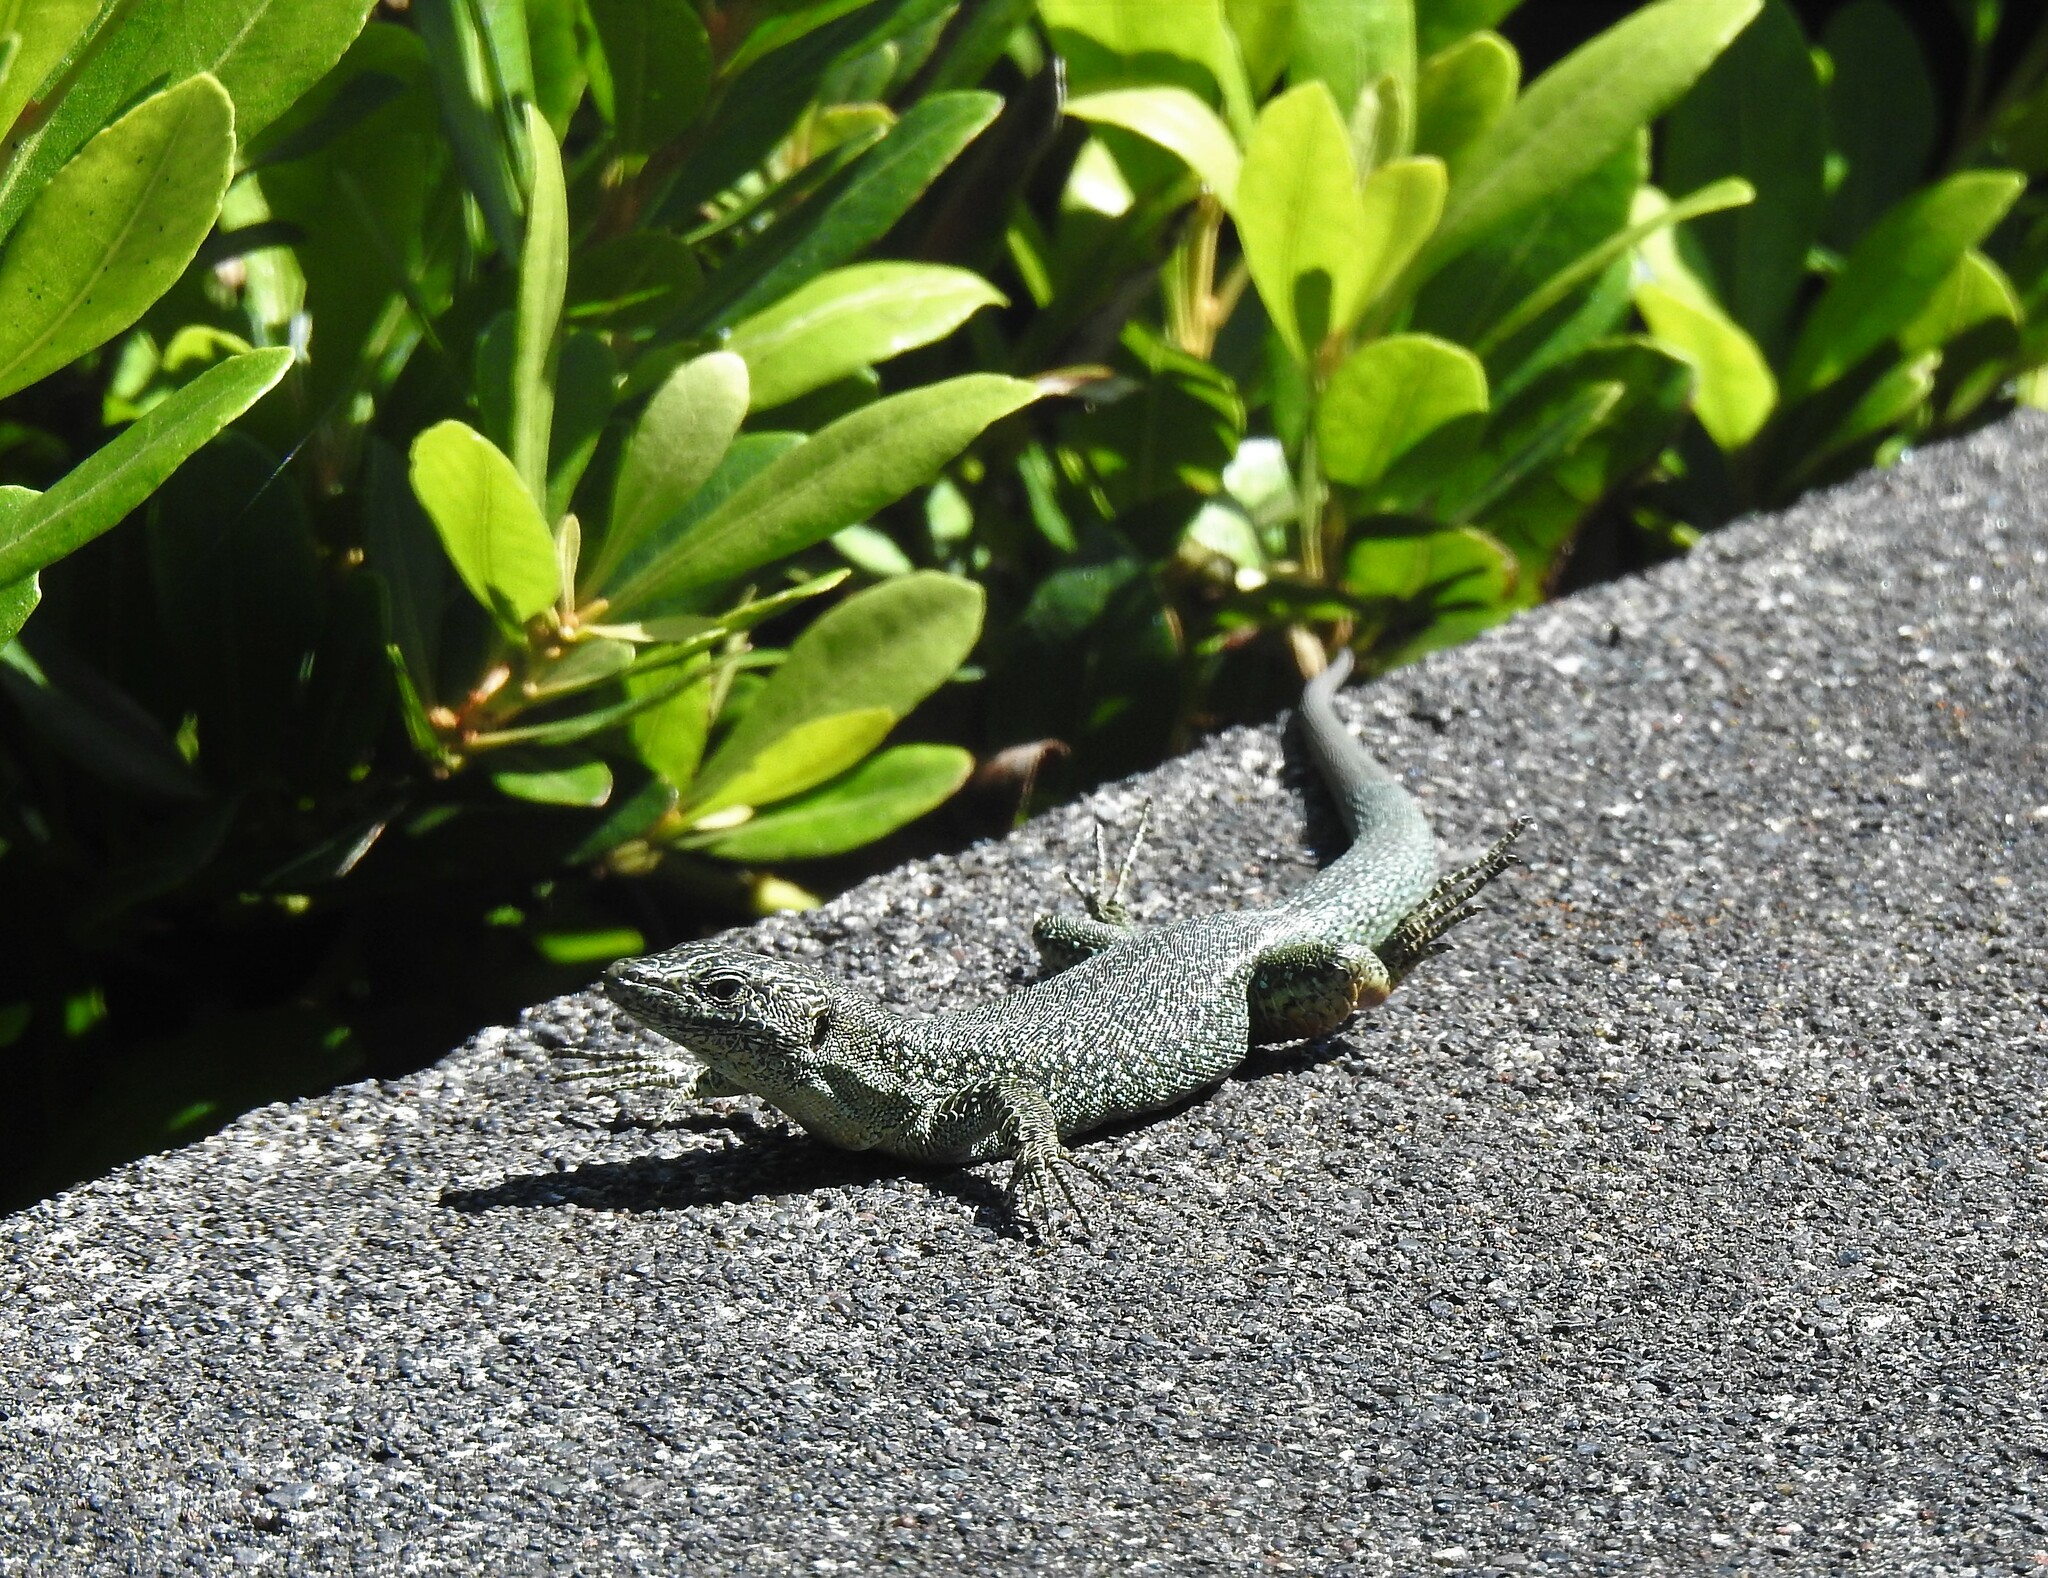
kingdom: Animalia
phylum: Chordata
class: Squamata
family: Lacertidae
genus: Teira
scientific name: Teira dugesii
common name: Madeira lizard
